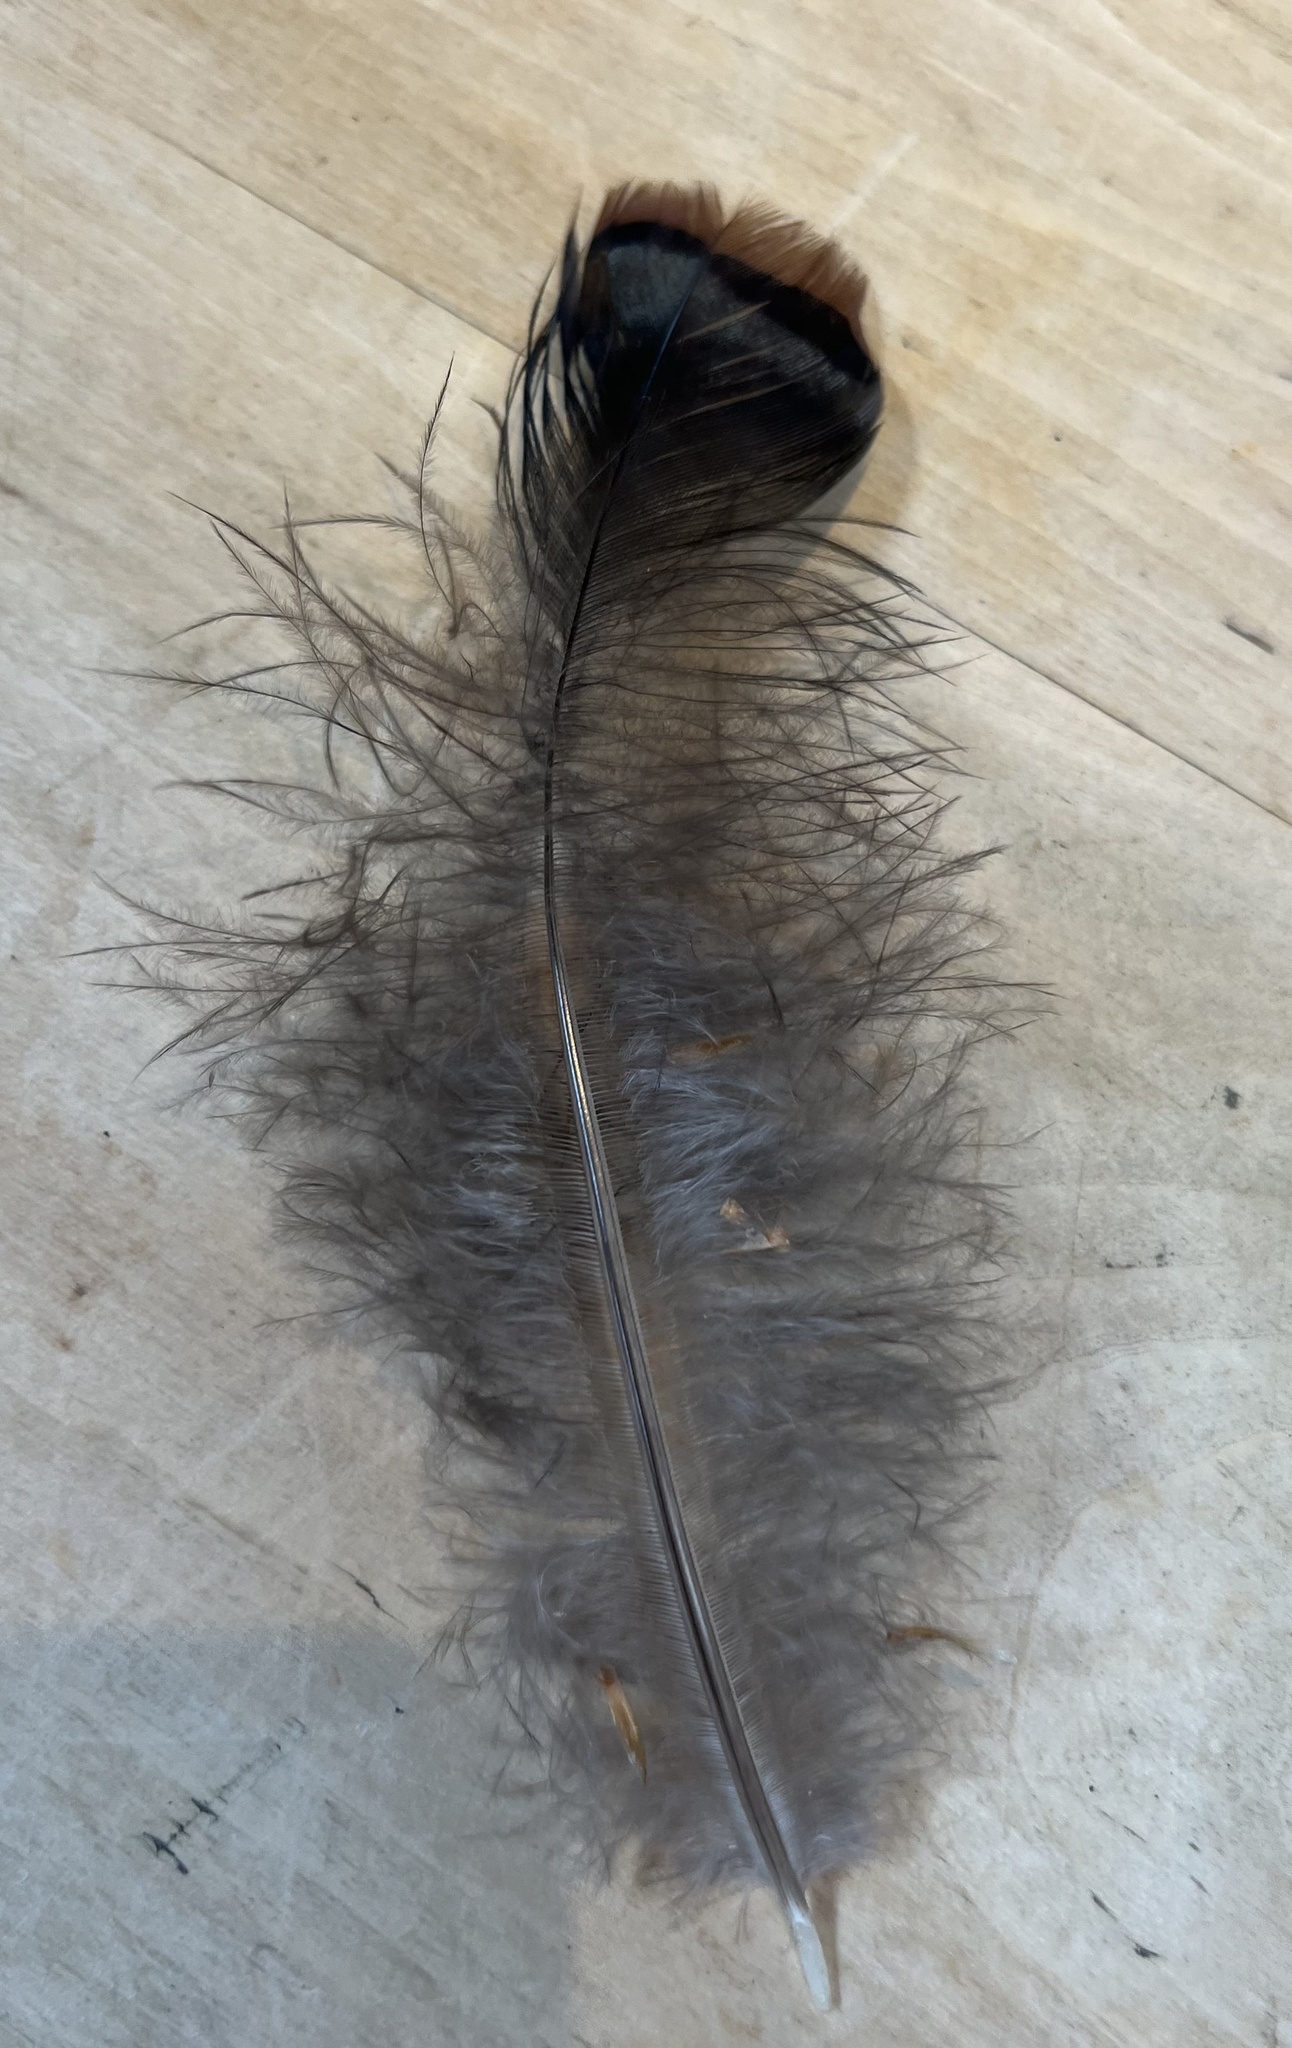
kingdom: Animalia
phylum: Chordata
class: Aves
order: Galliformes
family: Phasianidae
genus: Meleagris
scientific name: Meleagris gallopavo
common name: Wild turkey
